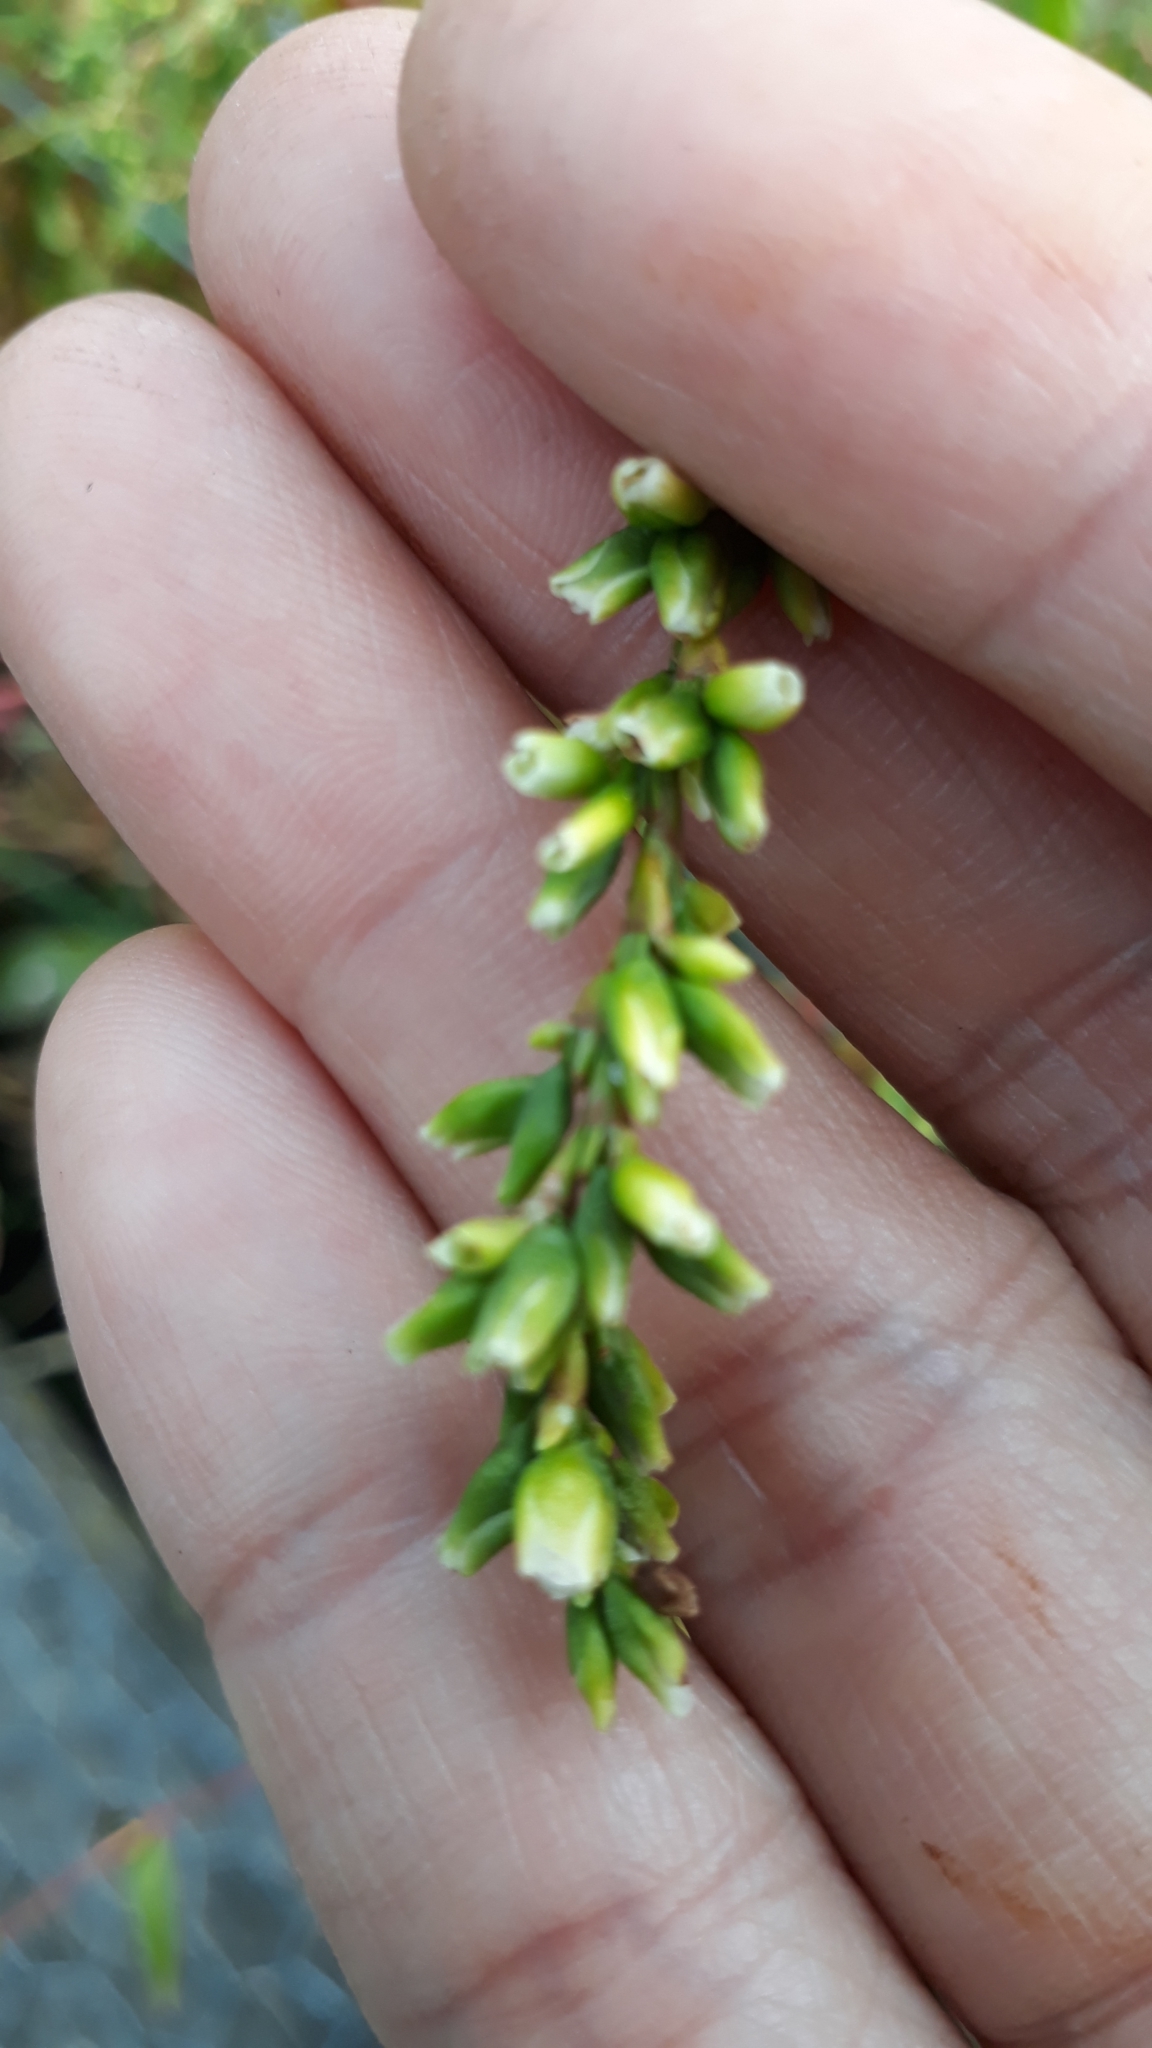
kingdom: Plantae
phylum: Tracheophyta
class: Magnoliopsida
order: Caryophyllales
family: Polygonaceae
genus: Persicaria
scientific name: Persicaria hydropiper
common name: Water-pepper
